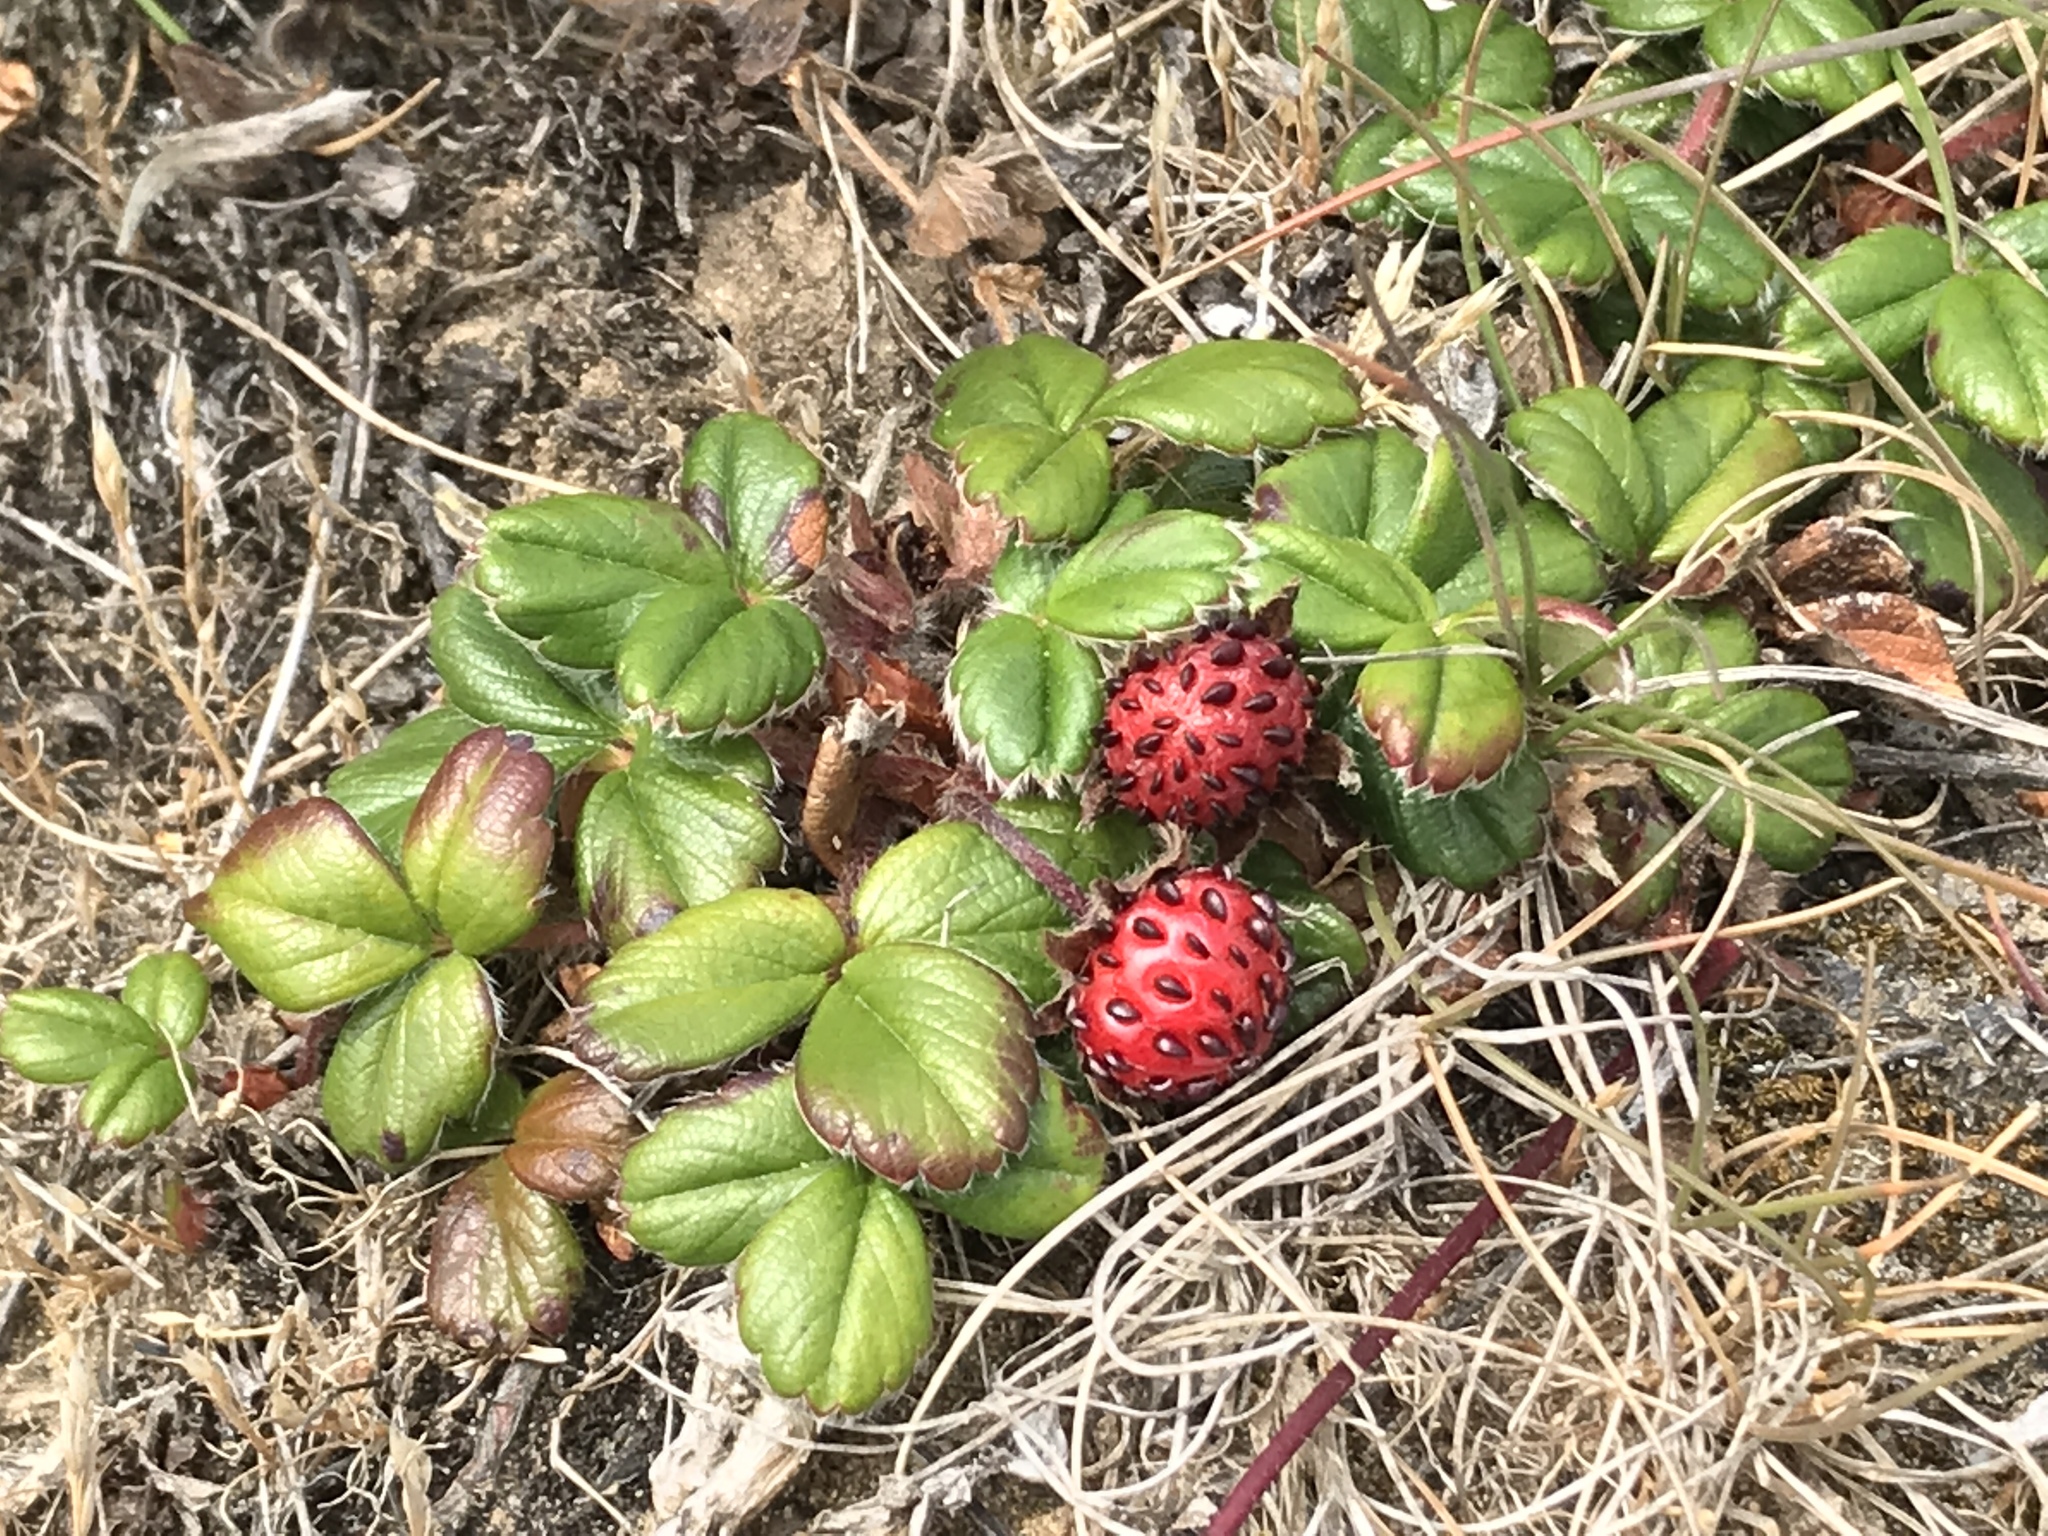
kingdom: Plantae
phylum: Tracheophyta
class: Magnoliopsida
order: Rosales
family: Rosaceae
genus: Fragaria
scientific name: Fragaria chiloensis
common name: Beach strawberry
